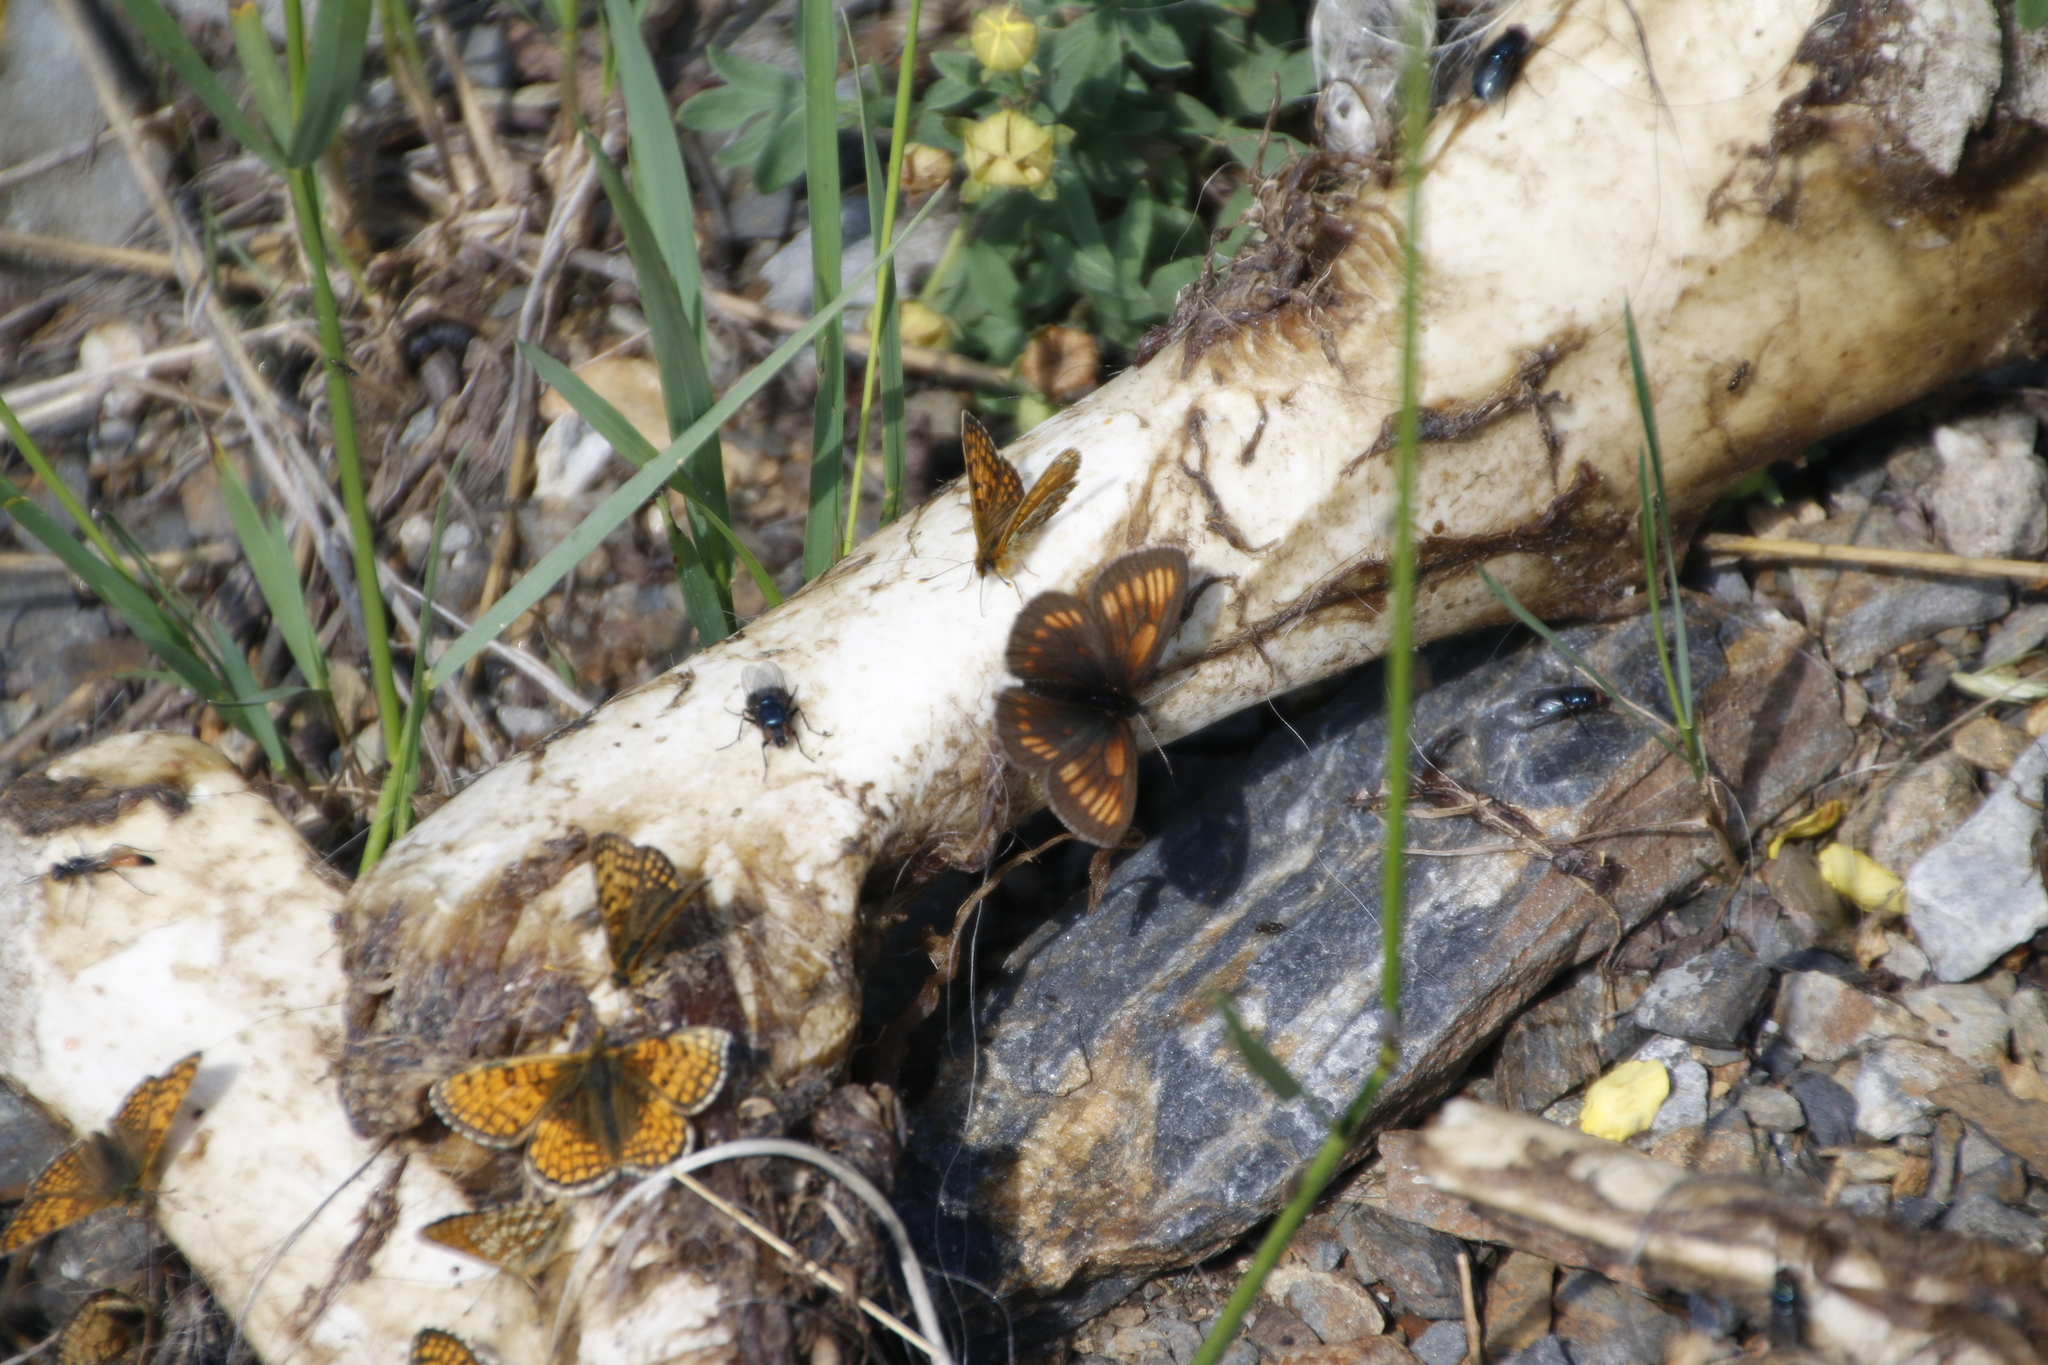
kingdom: Animalia
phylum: Arthropoda
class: Insecta
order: Lepidoptera
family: Nymphalidae
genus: Erebia
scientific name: Erebia maurisius
